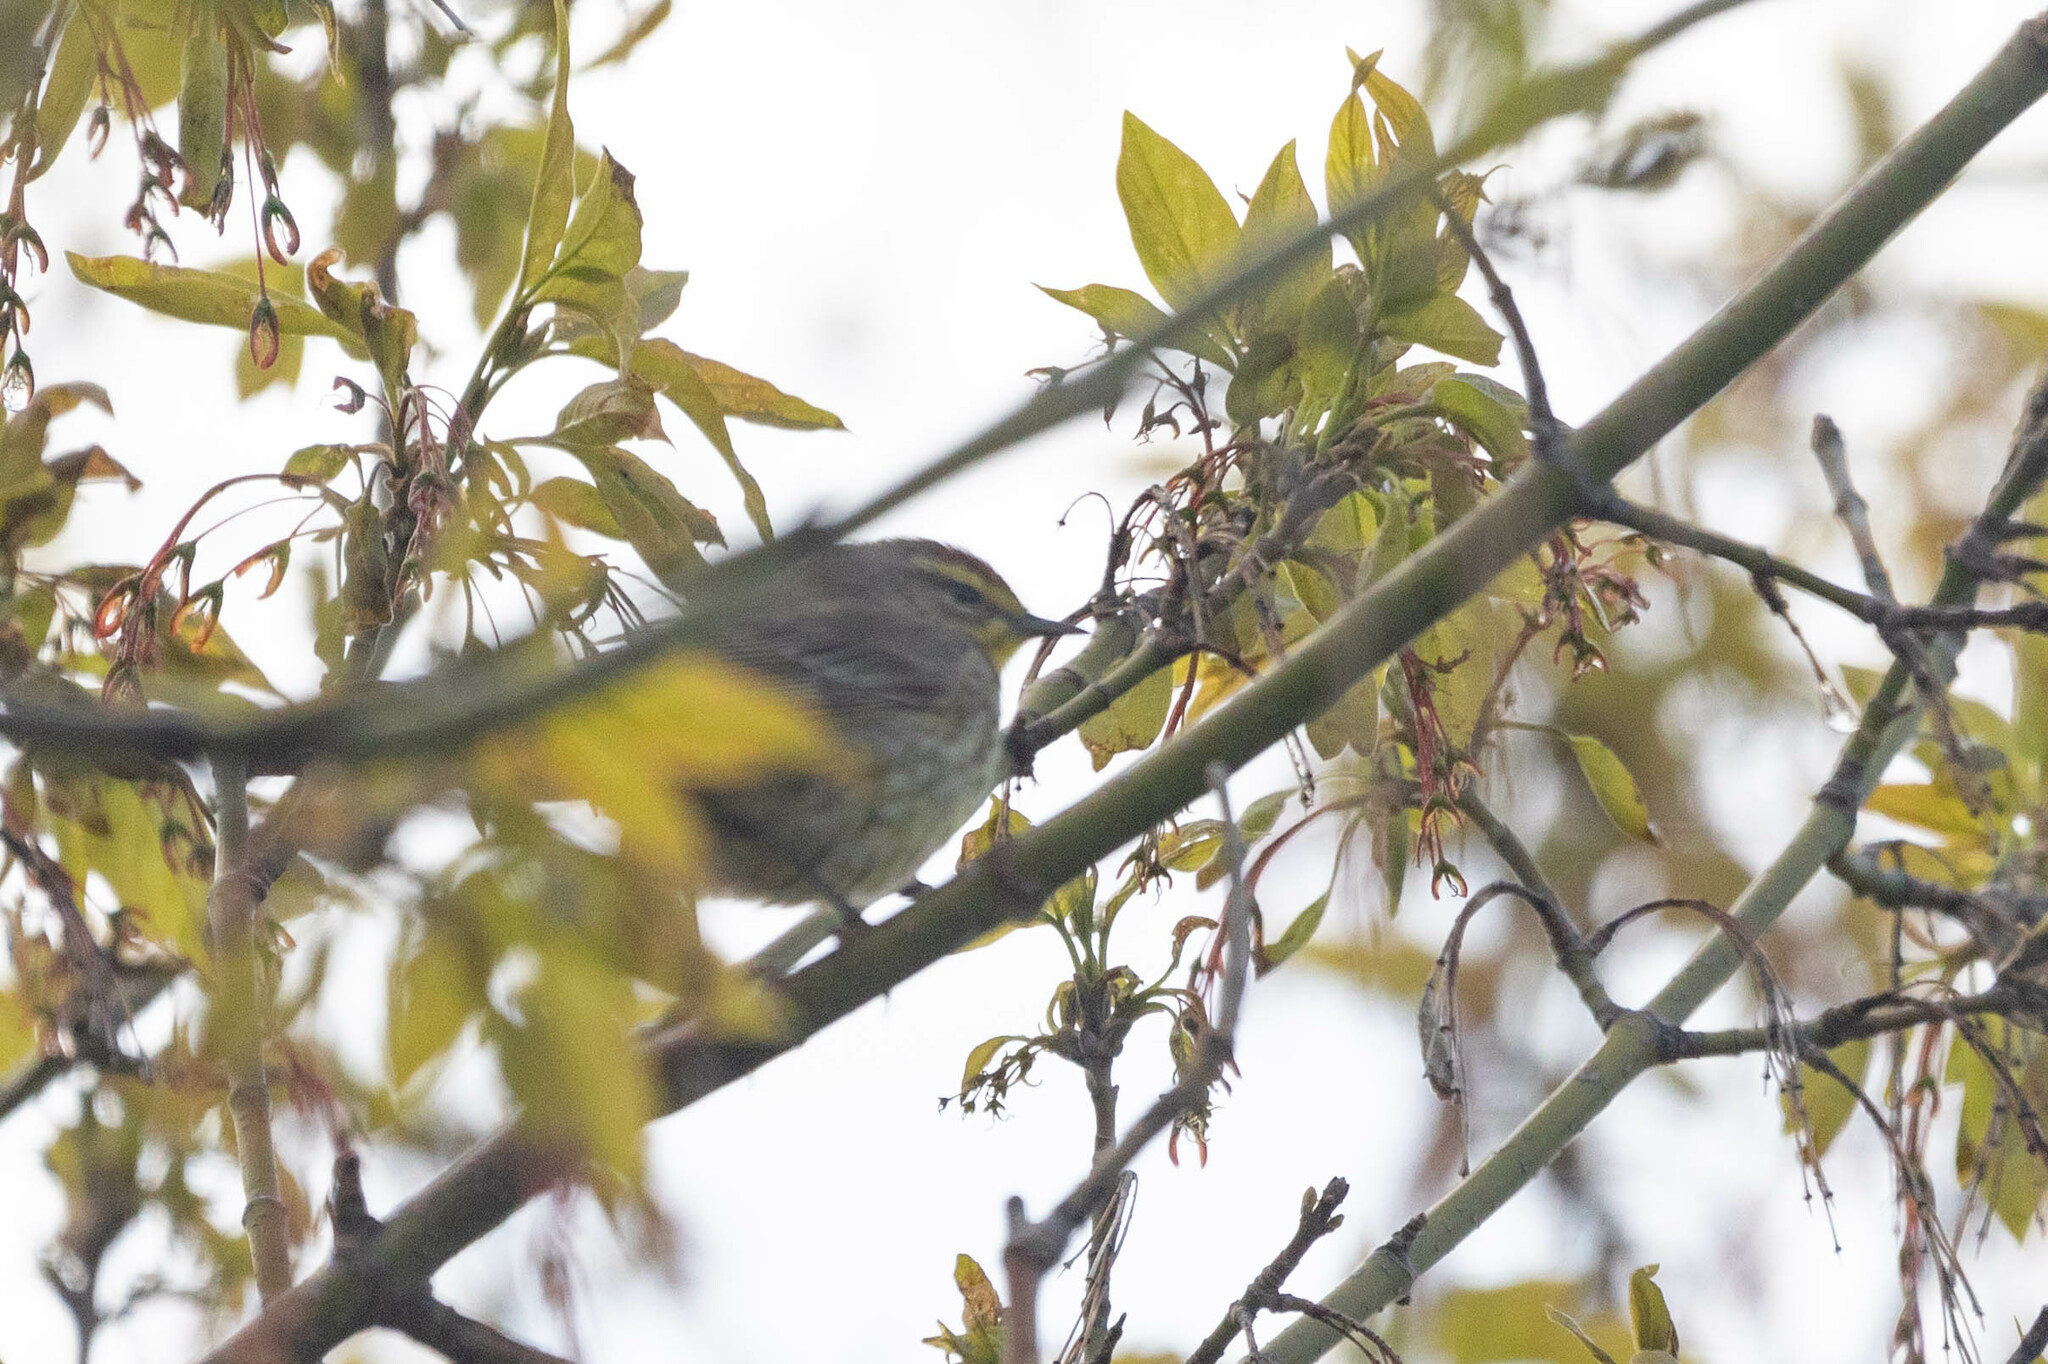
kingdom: Animalia
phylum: Chordata
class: Aves
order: Passeriformes
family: Parulidae
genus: Setophaga
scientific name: Setophaga palmarum
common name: Palm warbler
